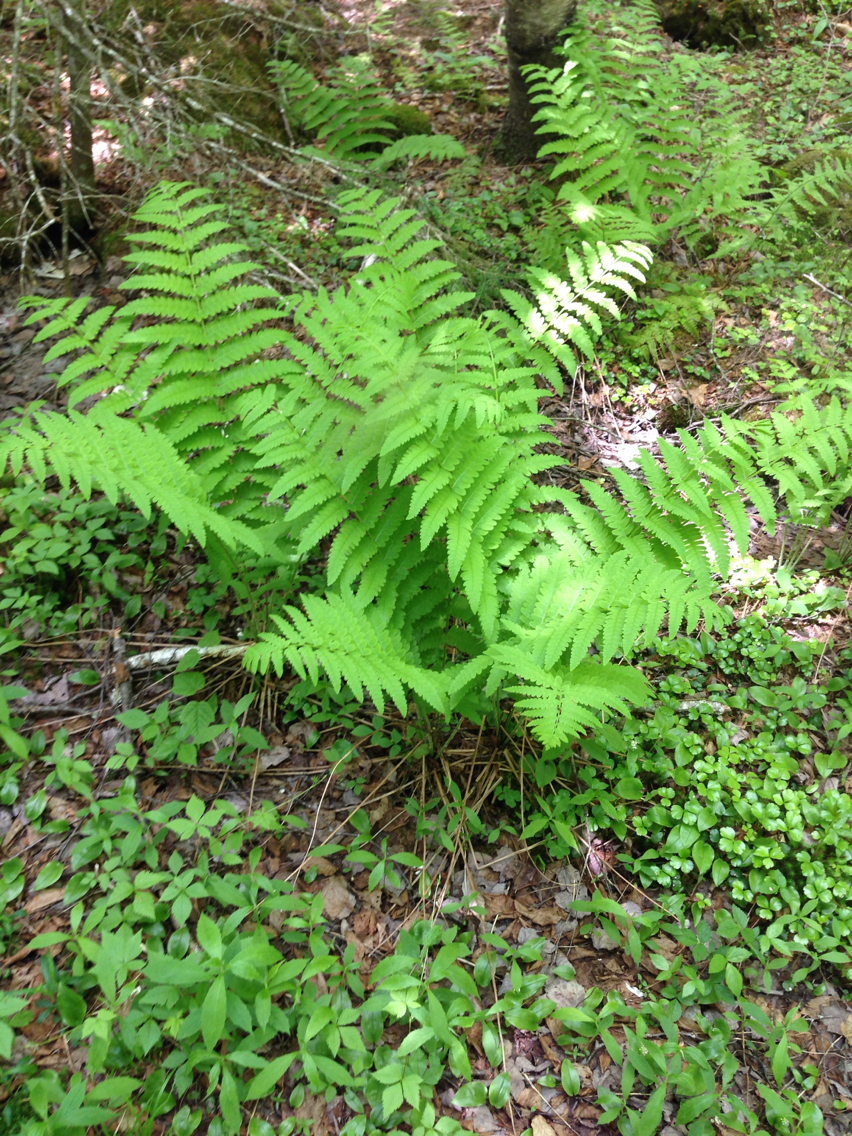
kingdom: Plantae
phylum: Tracheophyta
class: Polypodiopsida
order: Osmundales
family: Osmundaceae
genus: Claytosmunda
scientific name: Claytosmunda claytoniana
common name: Clayton's fern
